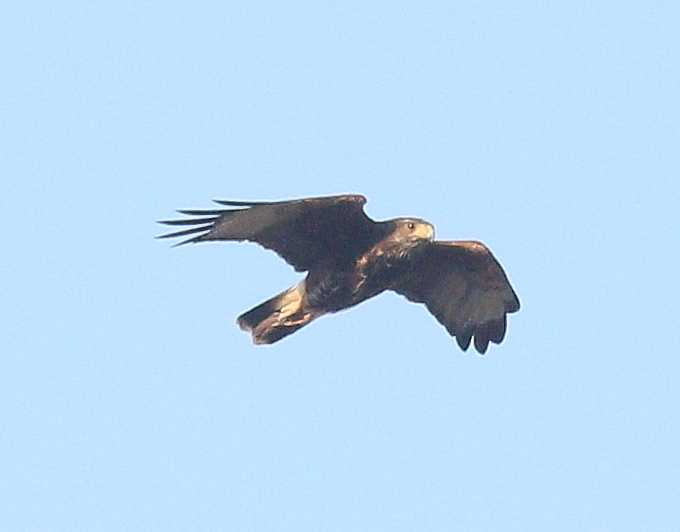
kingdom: Animalia
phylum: Chordata
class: Aves
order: Accipitriformes
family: Accipitridae
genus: Parabuteo
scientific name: Parabuteo unicinctus
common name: Harris's hawk
